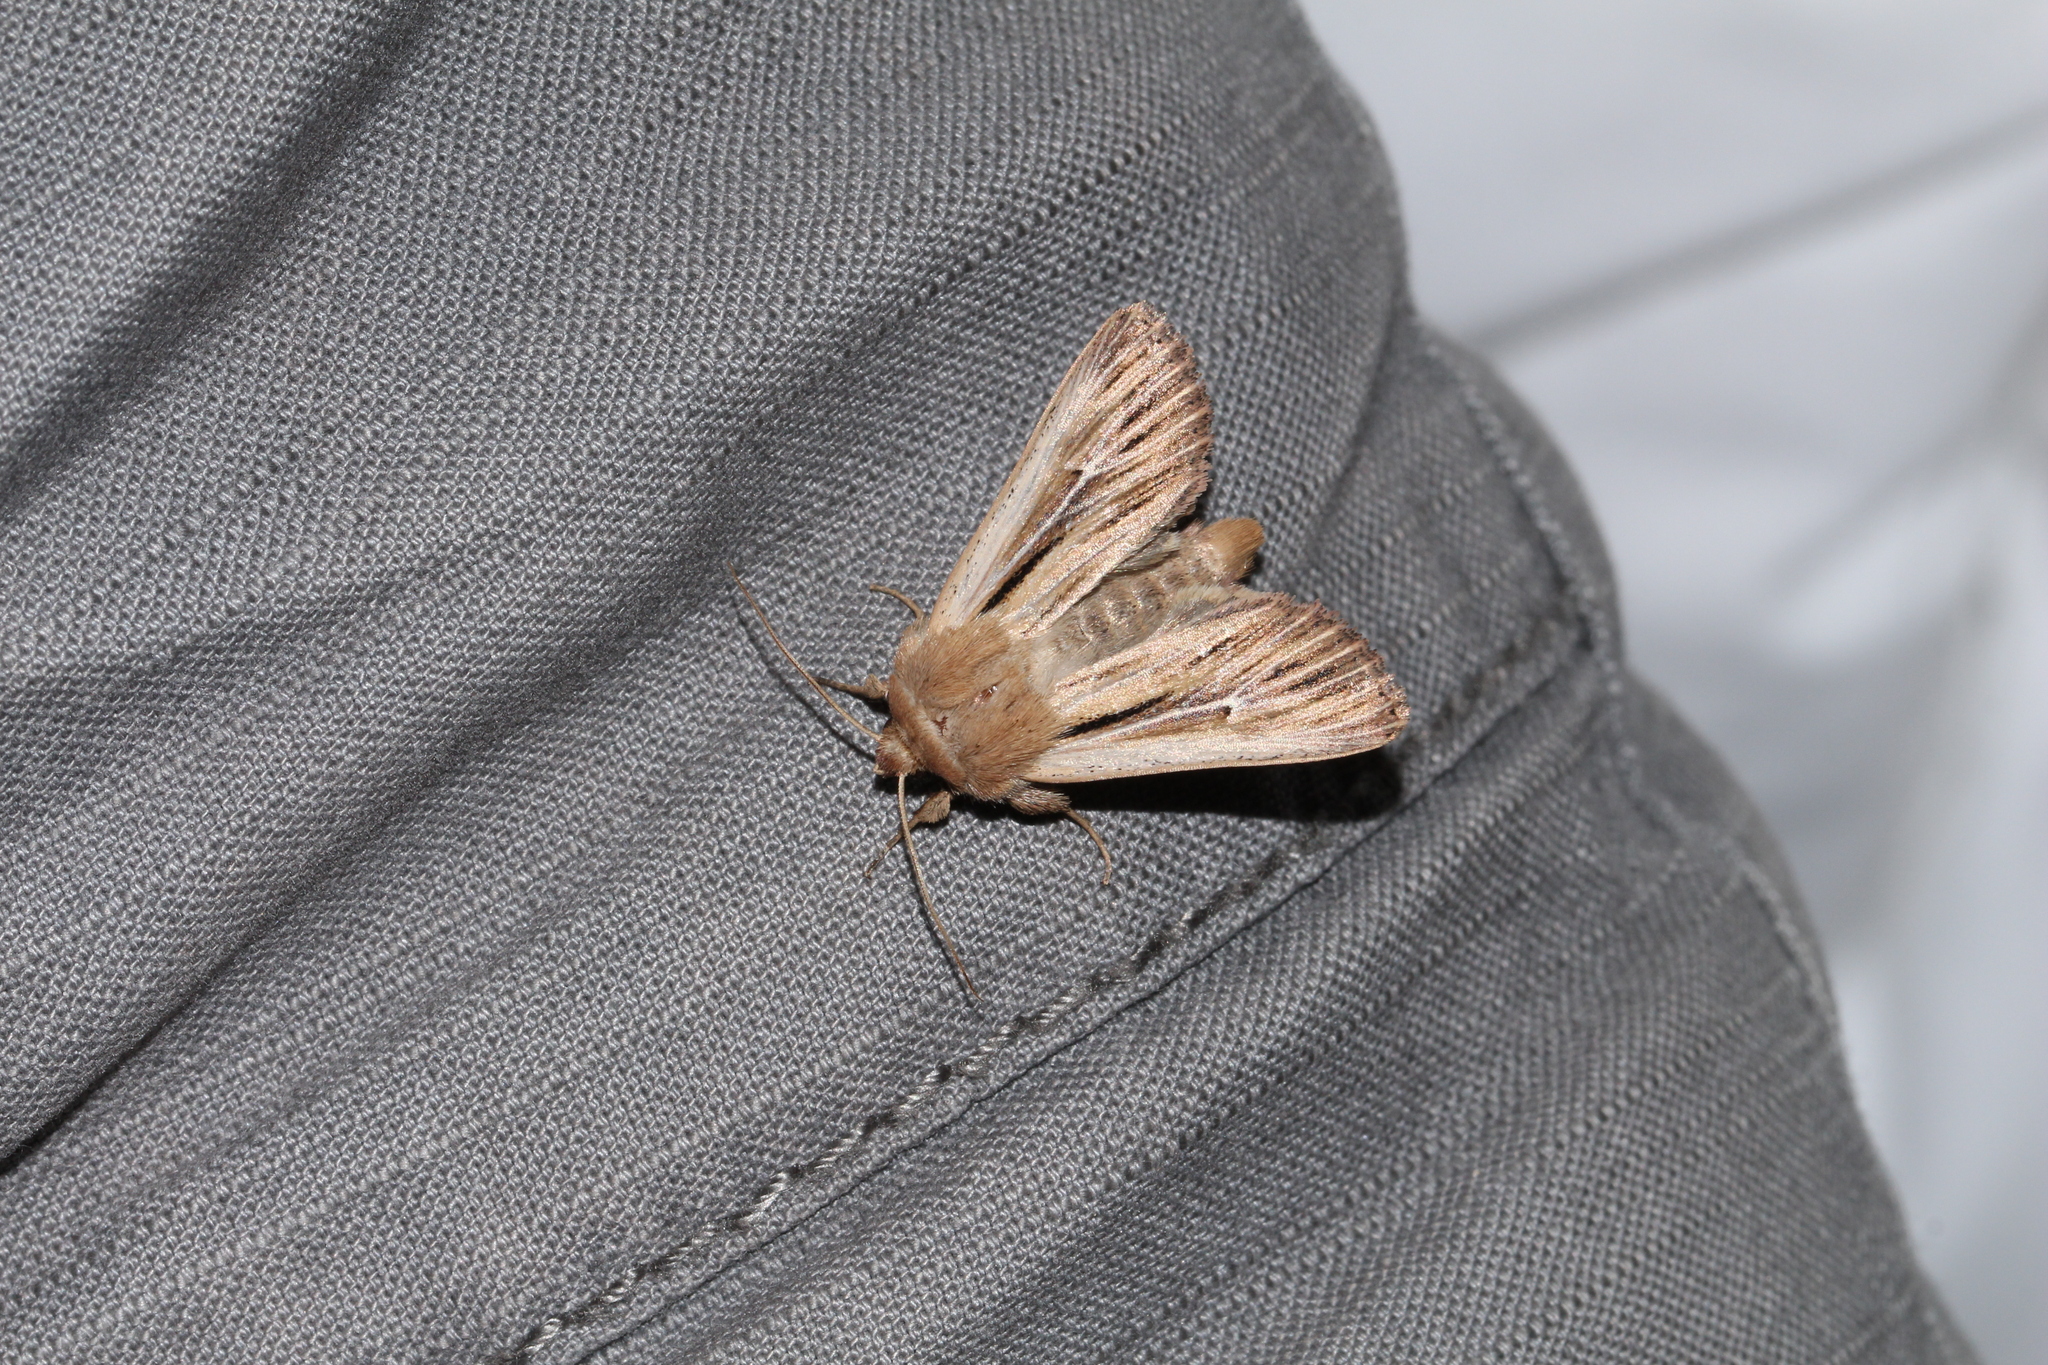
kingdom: Animalia
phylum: Arthropoda
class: Insecta
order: Lepidoptera
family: Noctuidae
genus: Leucania
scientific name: Leucania comma
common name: Shoulder-striped wainscot
